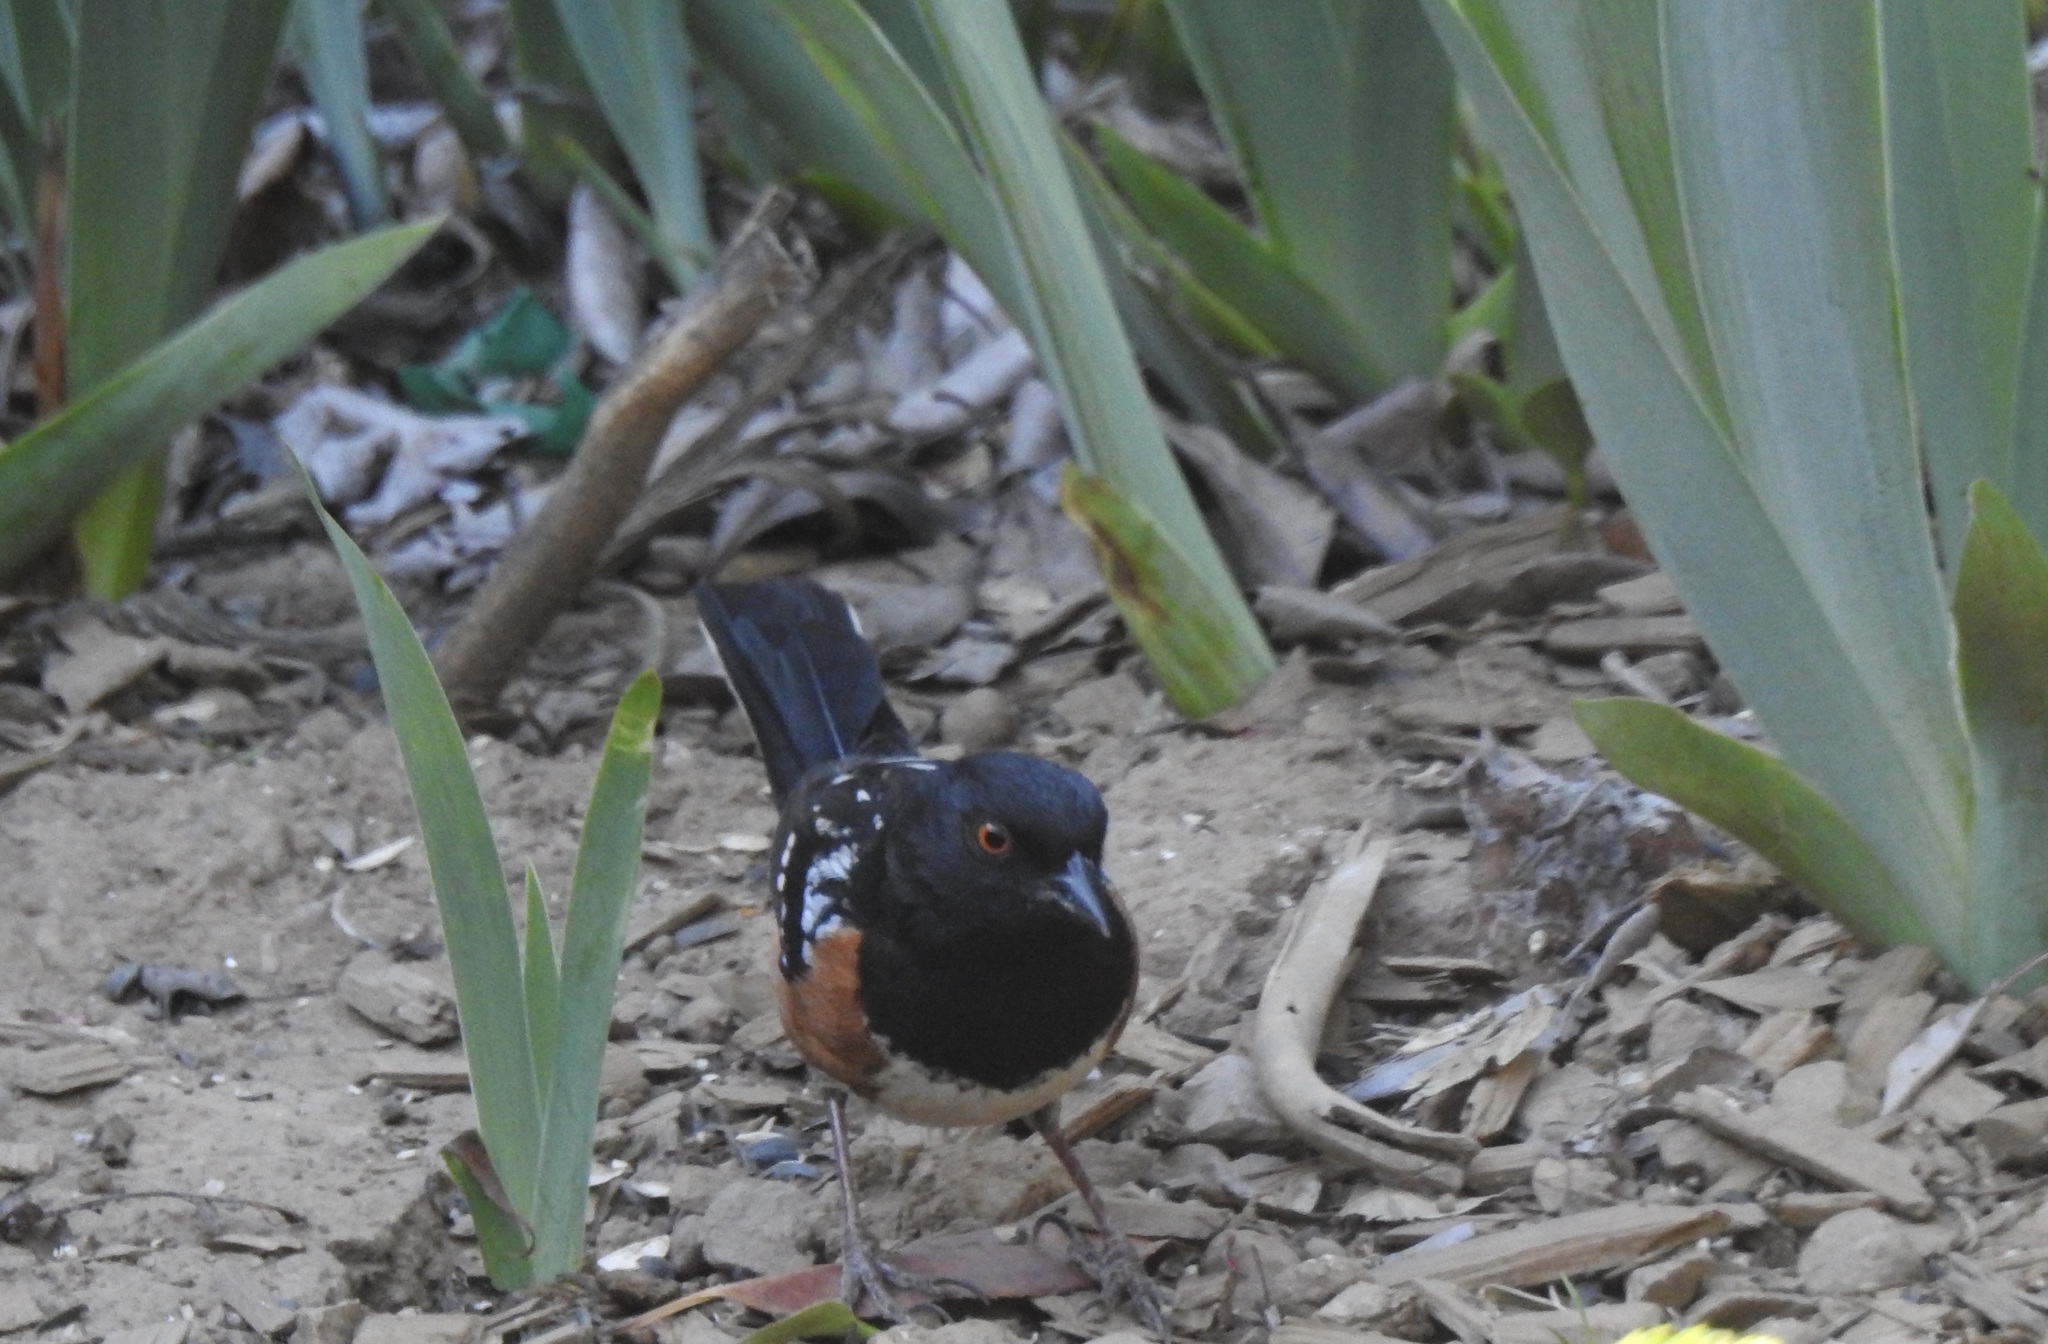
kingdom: Animalia
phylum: Chordata
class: Aves
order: Passeriformes
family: Passerellidae
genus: Pipilo
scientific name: Pipilo maculatus
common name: Spotted towhee
